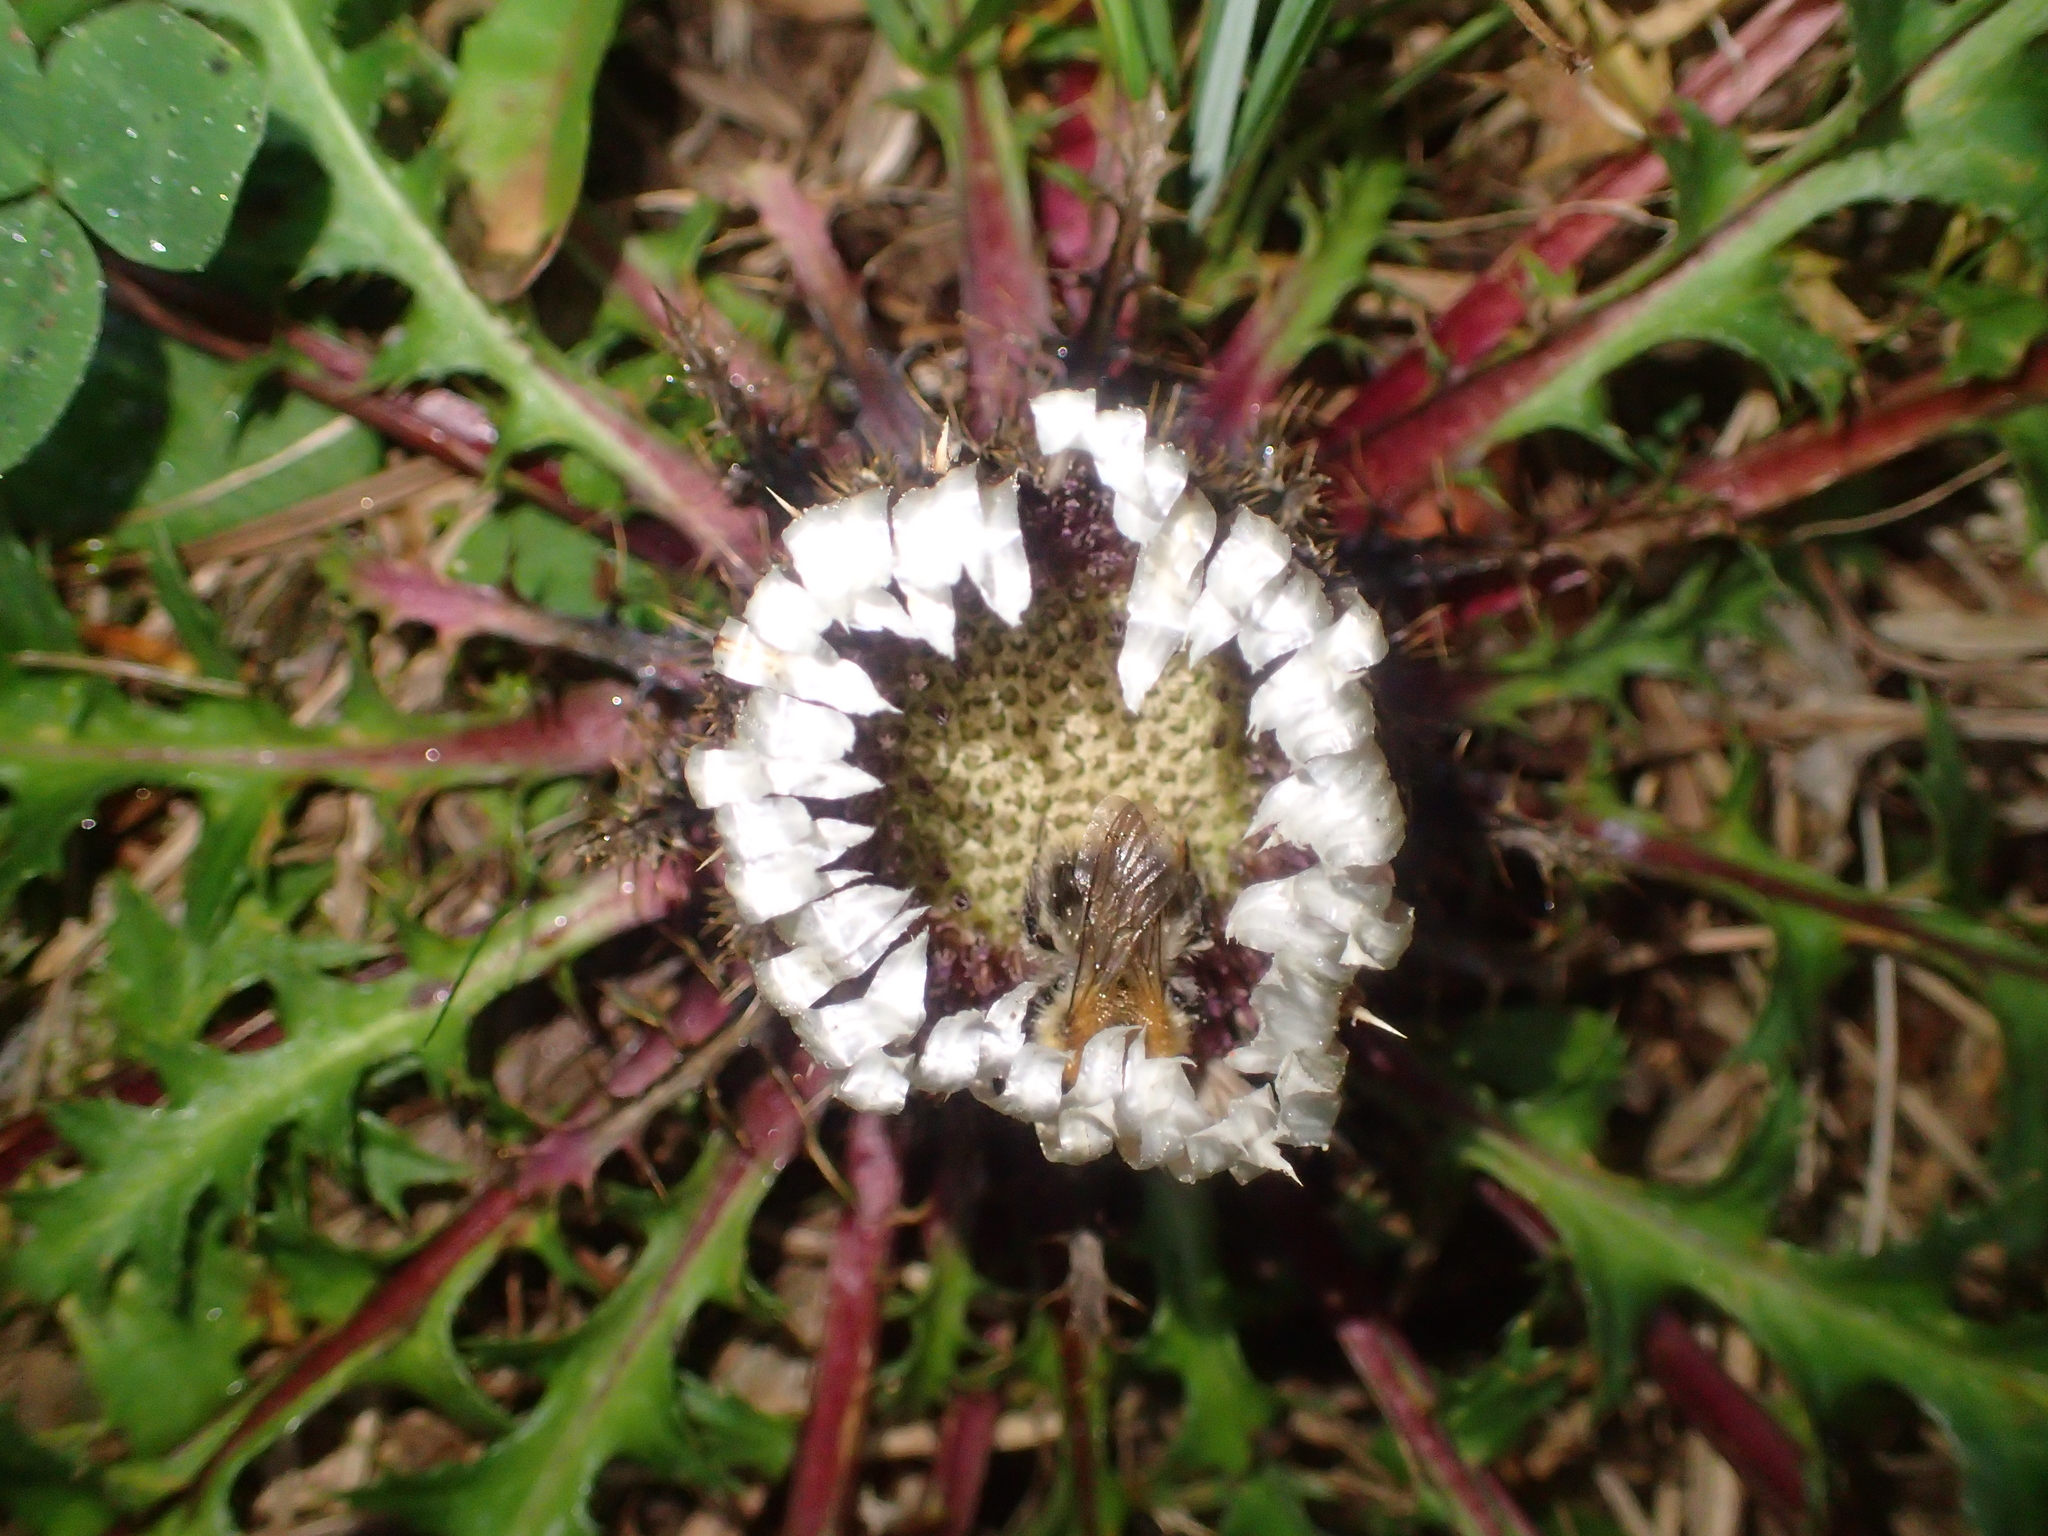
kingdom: Plantae
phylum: Tracheophyta
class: Magnoliopsida
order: Asterales
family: Asteraceae
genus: Carlina
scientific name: Carlina acaulis
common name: Stemless carline thistle
